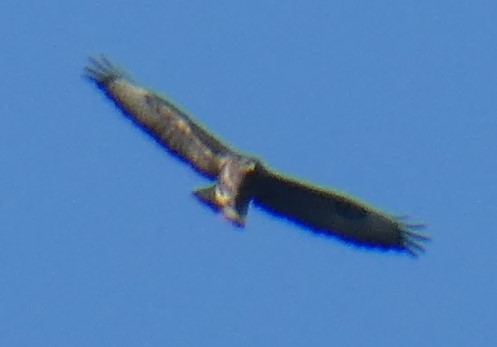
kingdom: Animalia
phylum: Chordata
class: Aves
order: Accipitriformes
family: Accipitridae
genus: Buteo
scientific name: Buteo buteo
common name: Common buzzard
